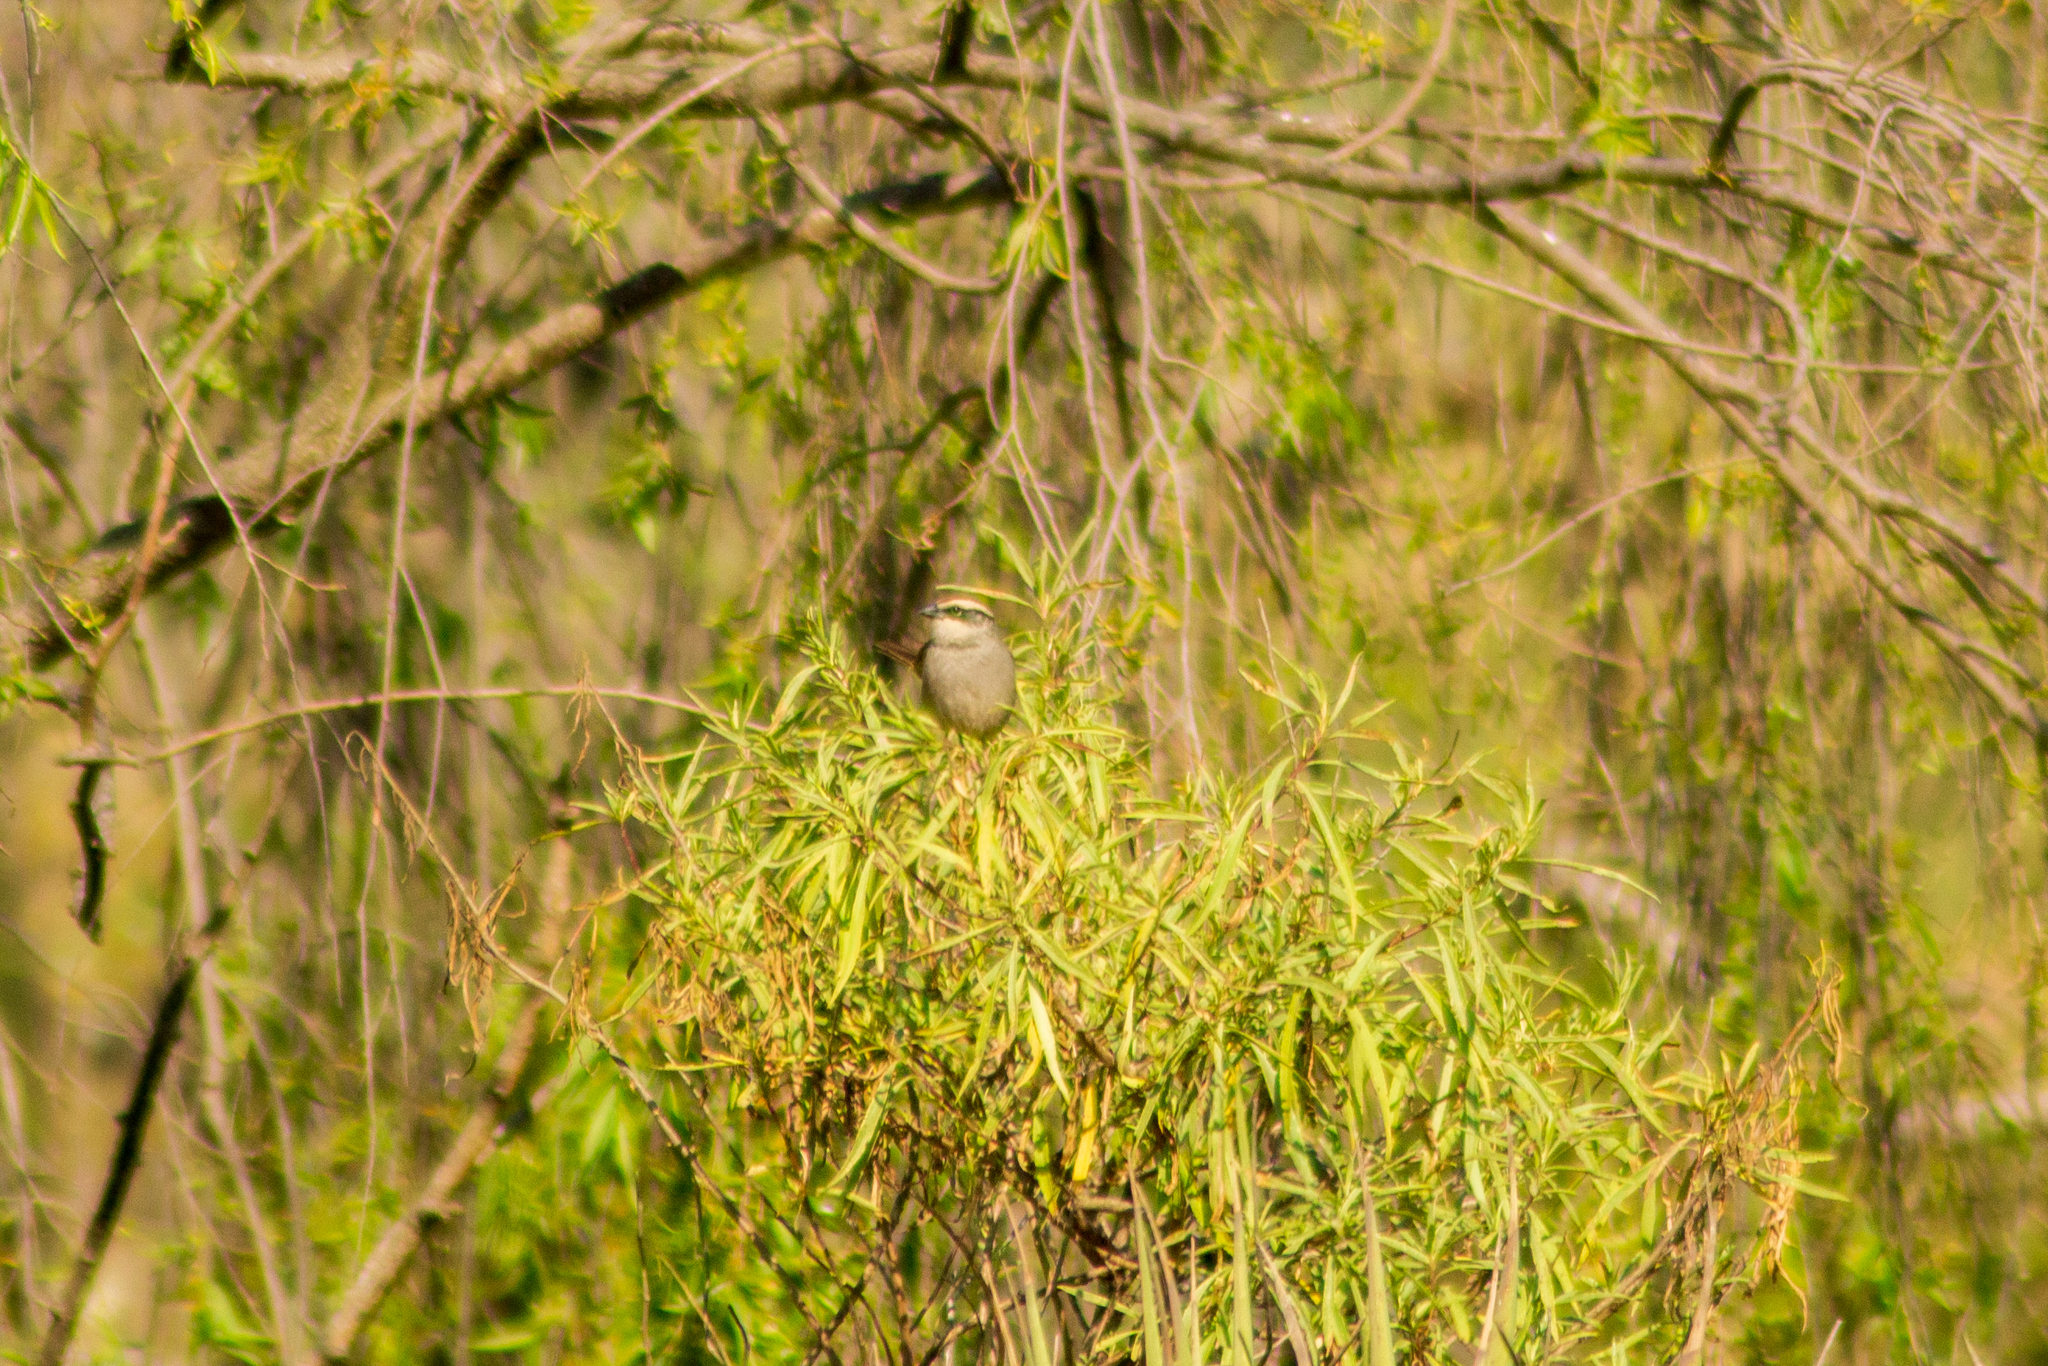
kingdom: Animalia
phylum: Chordata
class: Aves
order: Passeriformes
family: Passerellidae
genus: Oriturus
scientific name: Oriturus superciliosus
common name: Striped sparrow
